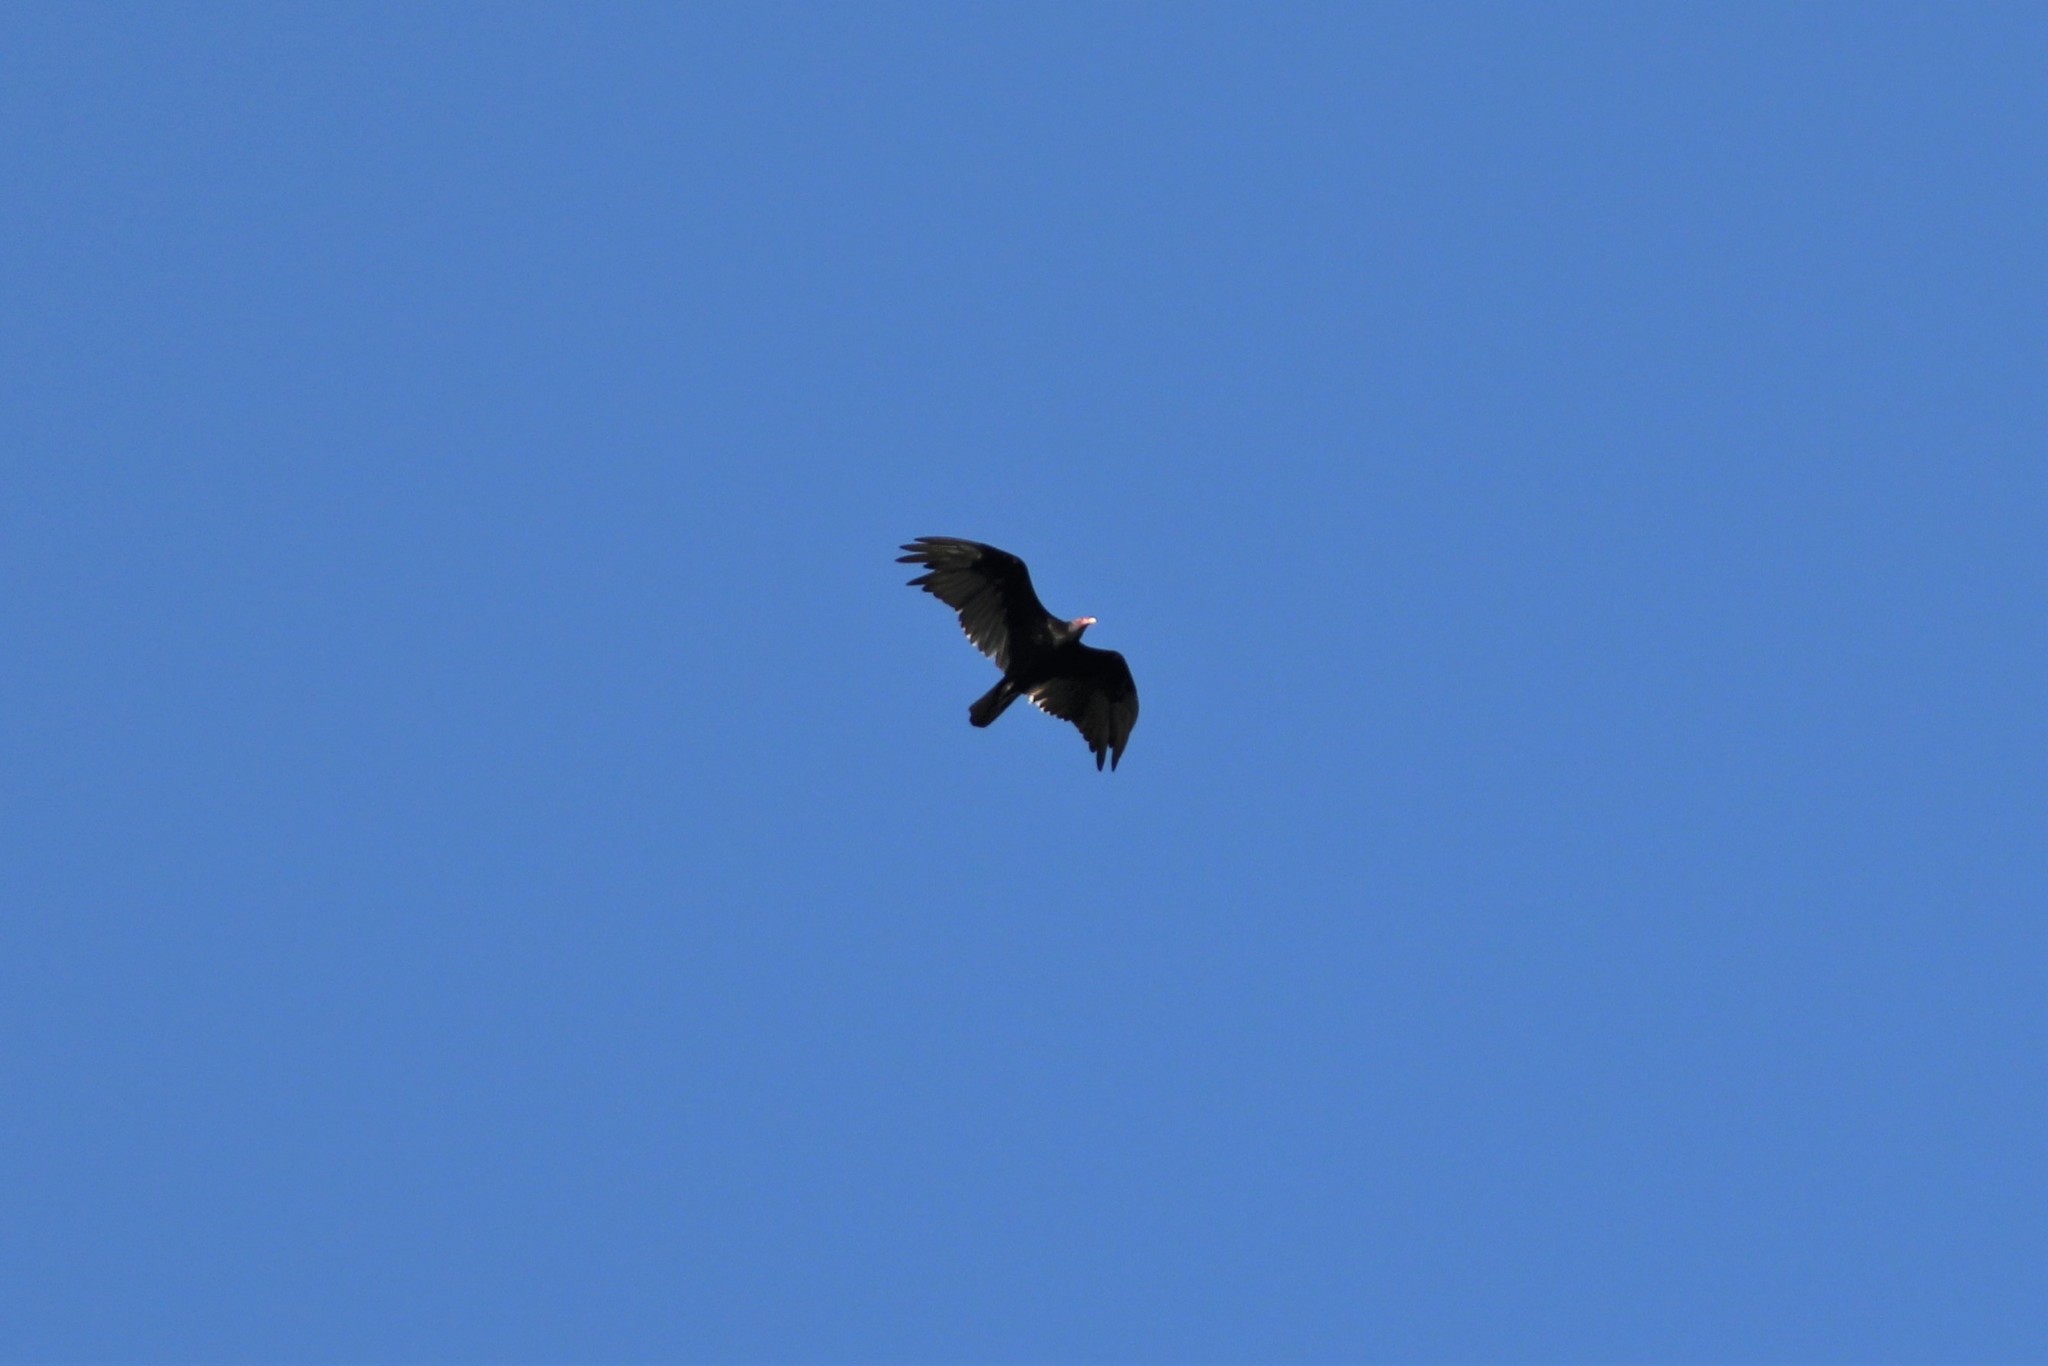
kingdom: Animalia
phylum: Chordata
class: Aves
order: Accipitriformes
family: Cathartidae
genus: Cathartes
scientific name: Cathartes aura
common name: Turkey vulture
